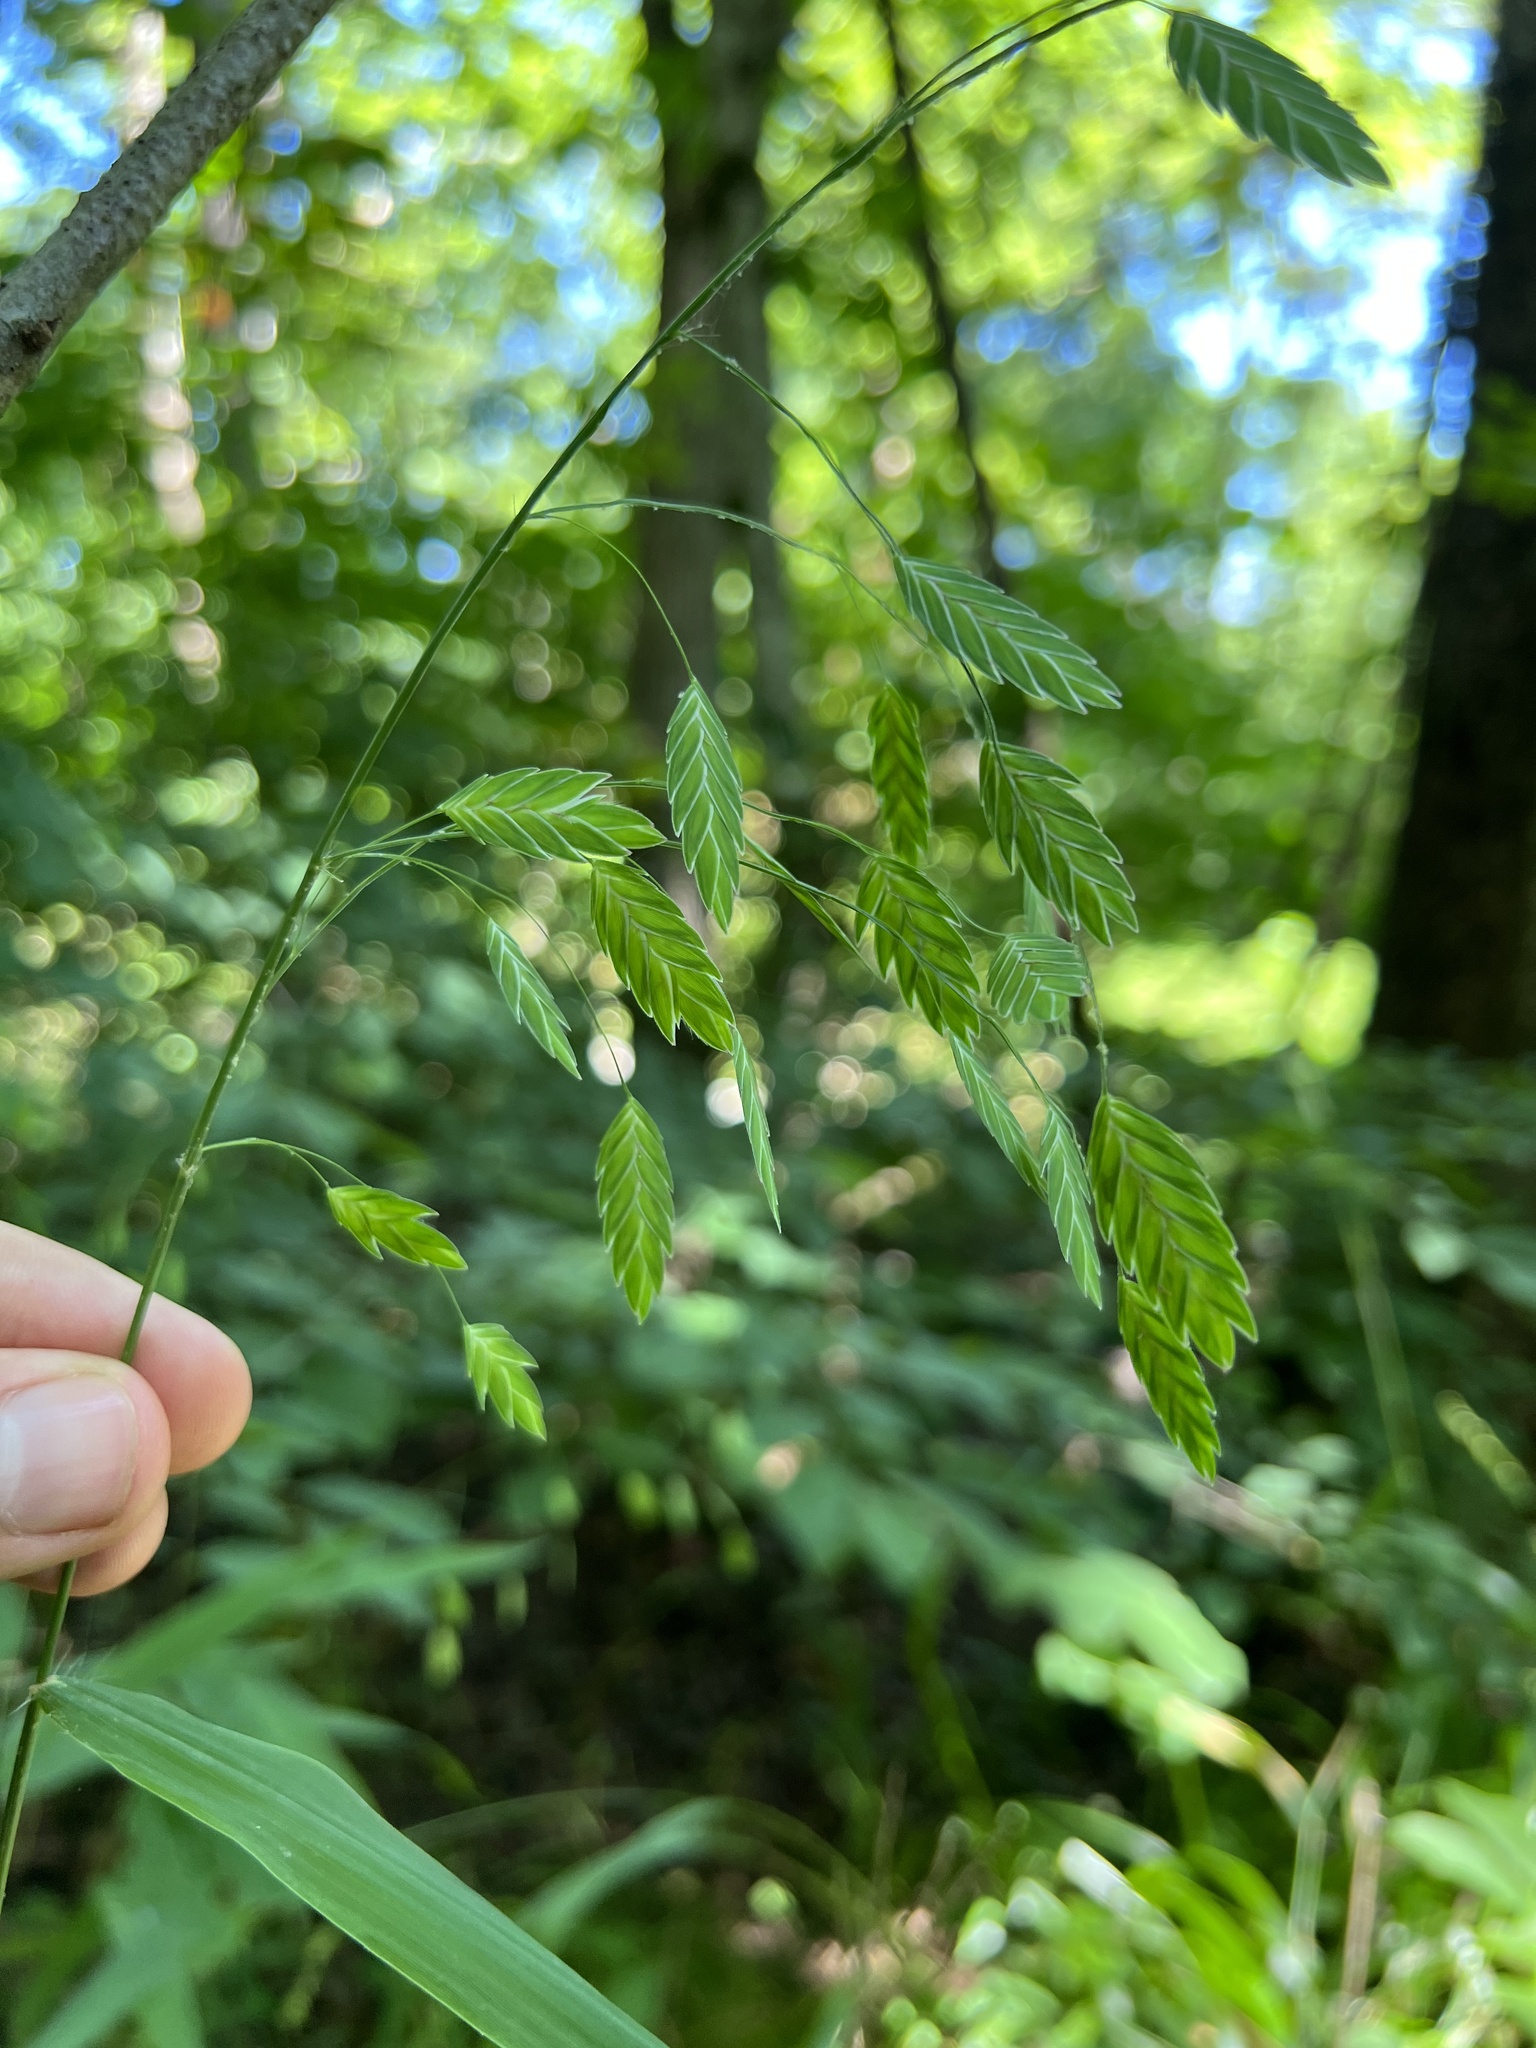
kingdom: Plantae
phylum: Tracheophyta
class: Liliopsida
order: Poales
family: Poaceae
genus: Chasmanthium
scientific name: Chasmanthium latifolium
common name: Broad-leaved chasmanthium
